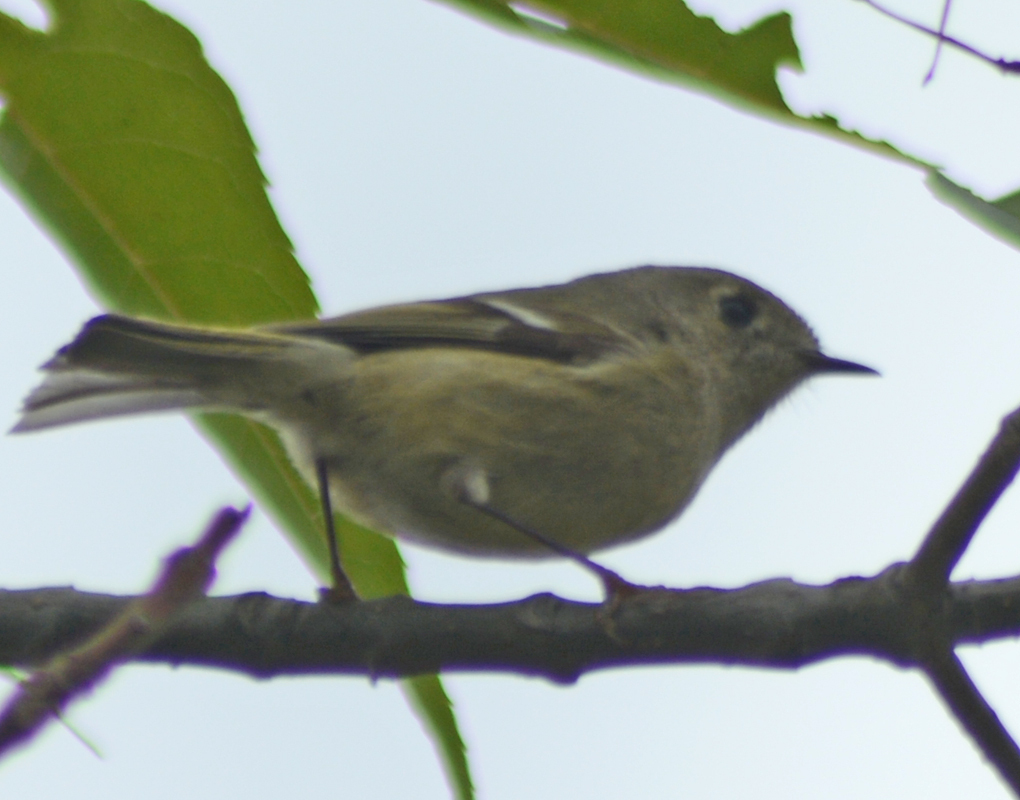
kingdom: Animalia
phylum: Chordata
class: Aves
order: Passeriformes
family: Regulidae
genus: Regulus
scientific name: Regulus calendula
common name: Ruby-crowned kinglet
